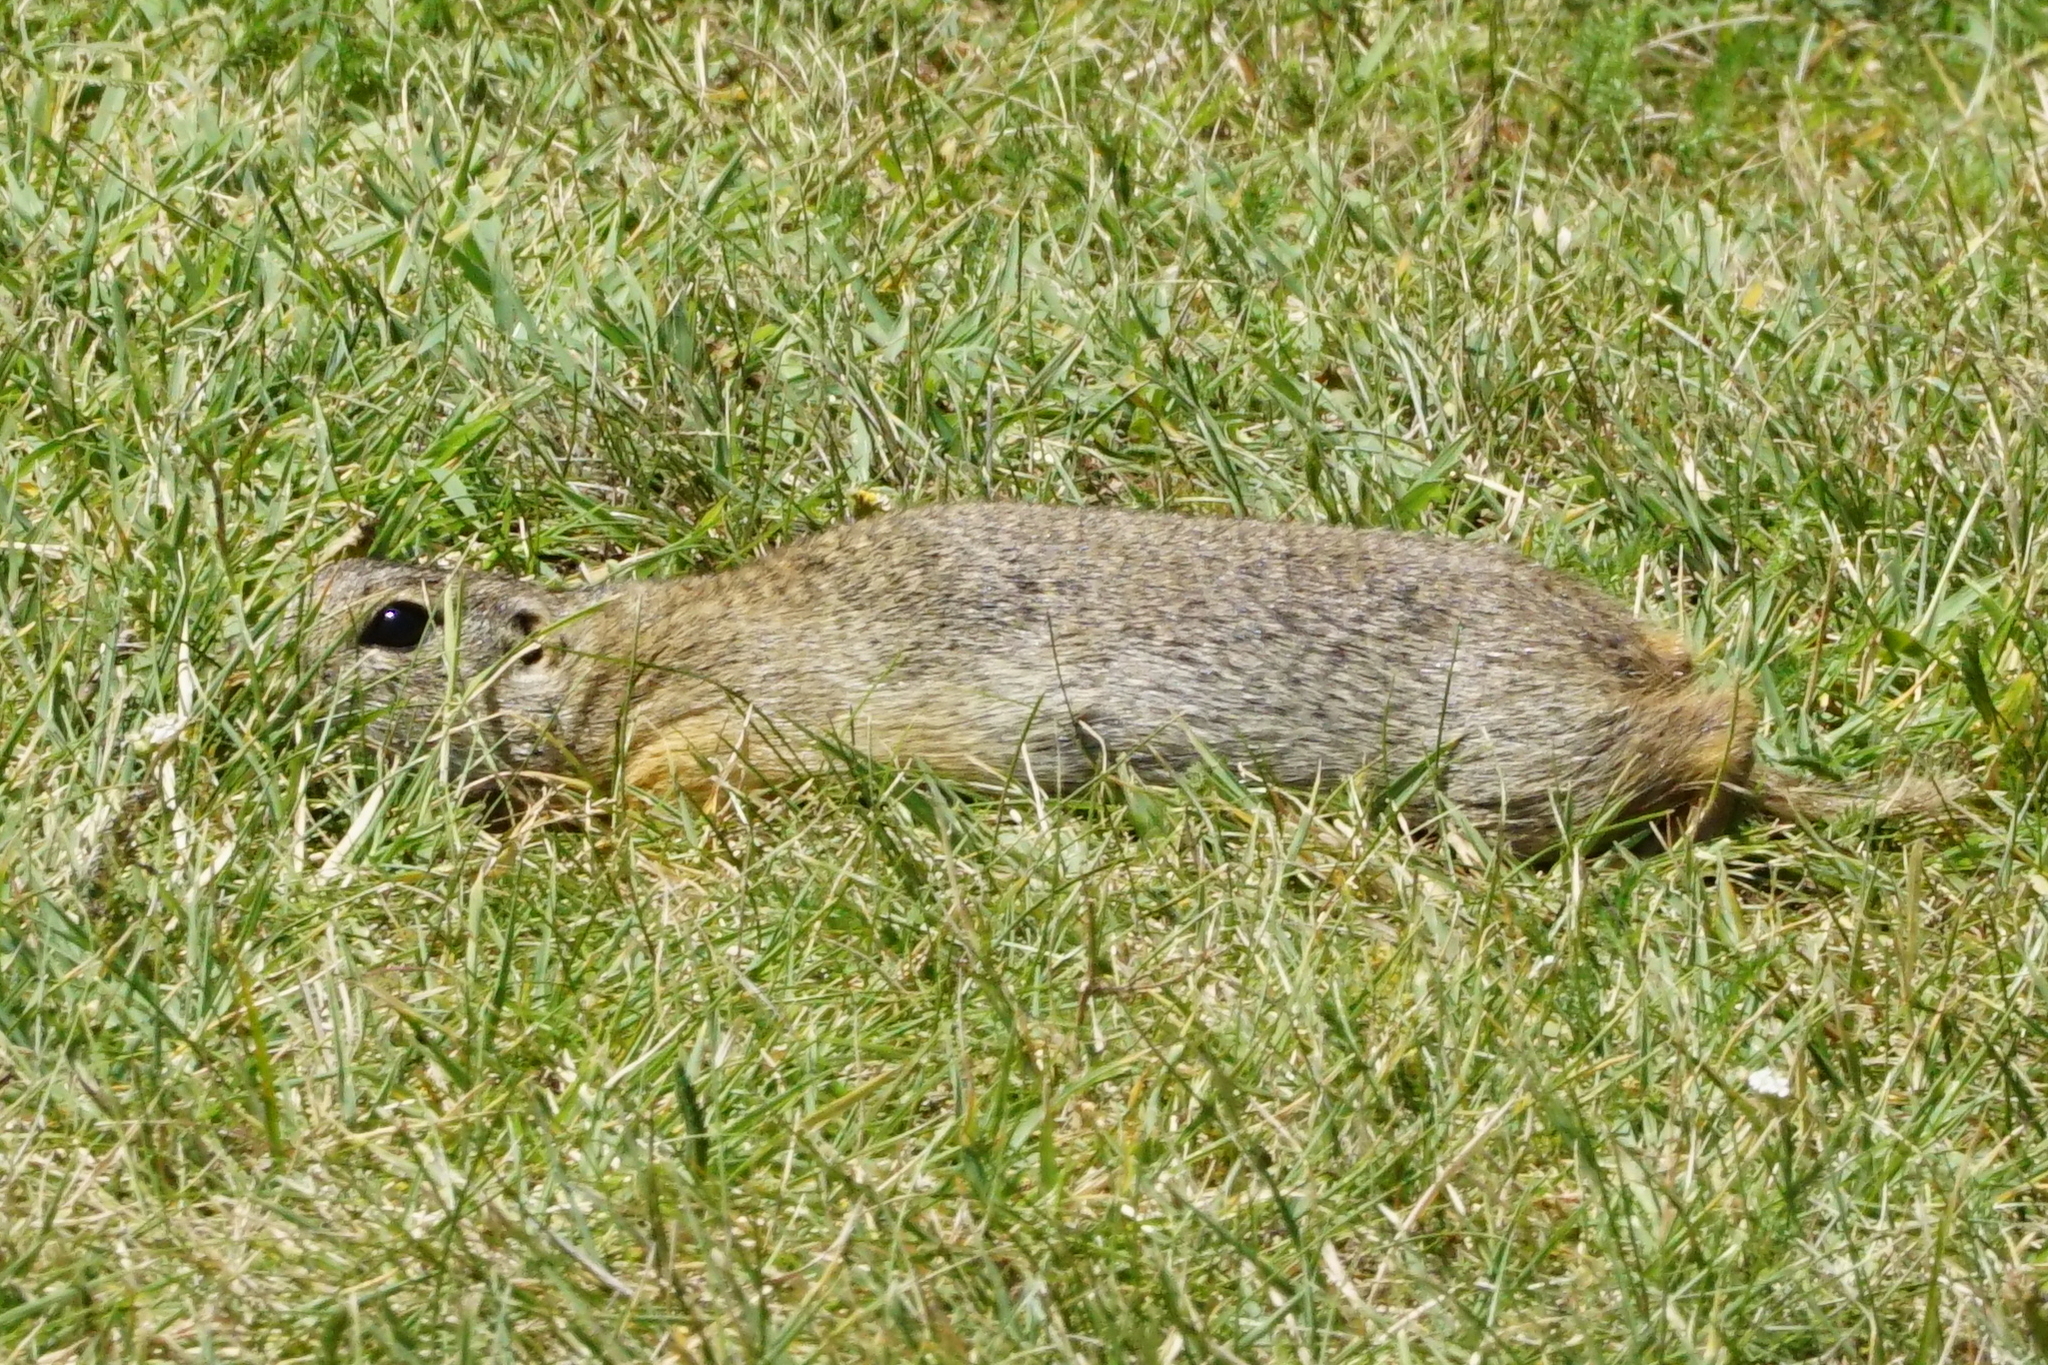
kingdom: Animalia
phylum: Chordata
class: Mammalia
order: Rodentia
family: Sciuridae
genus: Spermophilus
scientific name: Spermophilus citellus
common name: European ground squirrel
